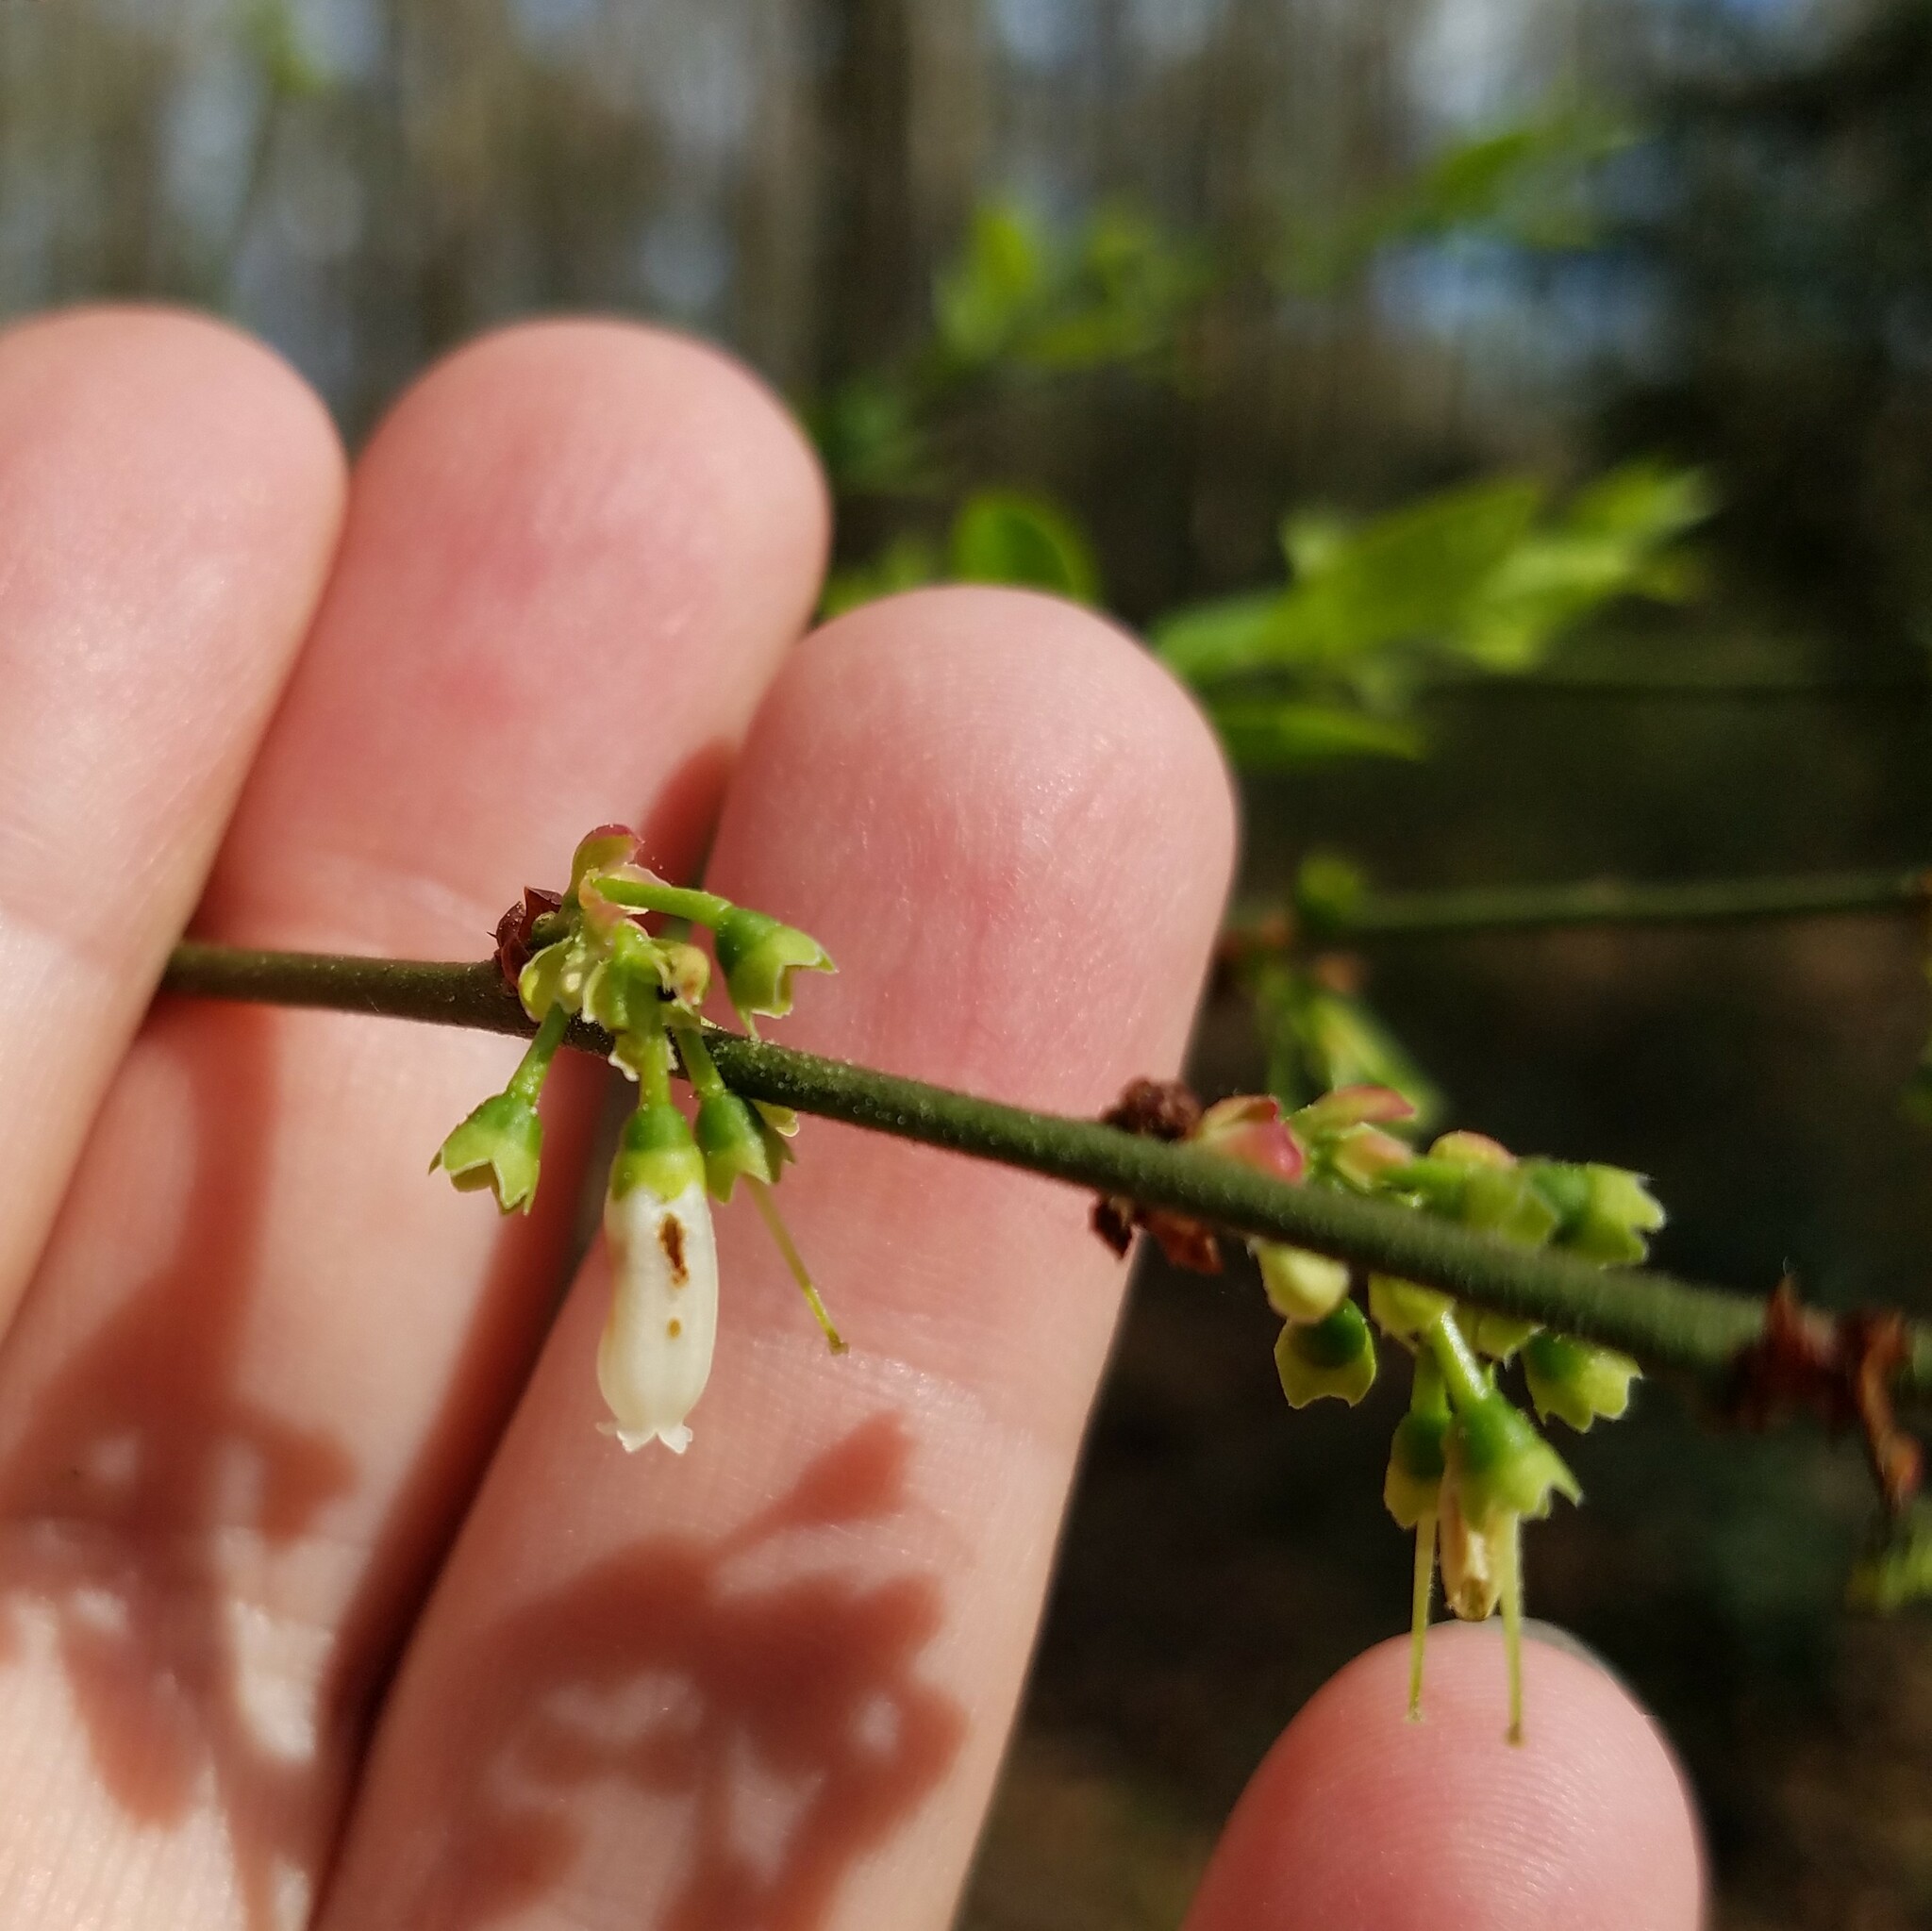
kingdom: Plantae
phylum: Tracheophyta
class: Magnoliopsida
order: Ericales
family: Ericaceae
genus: Vaccinium
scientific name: Vaccinium corymbosum
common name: Blueberry
